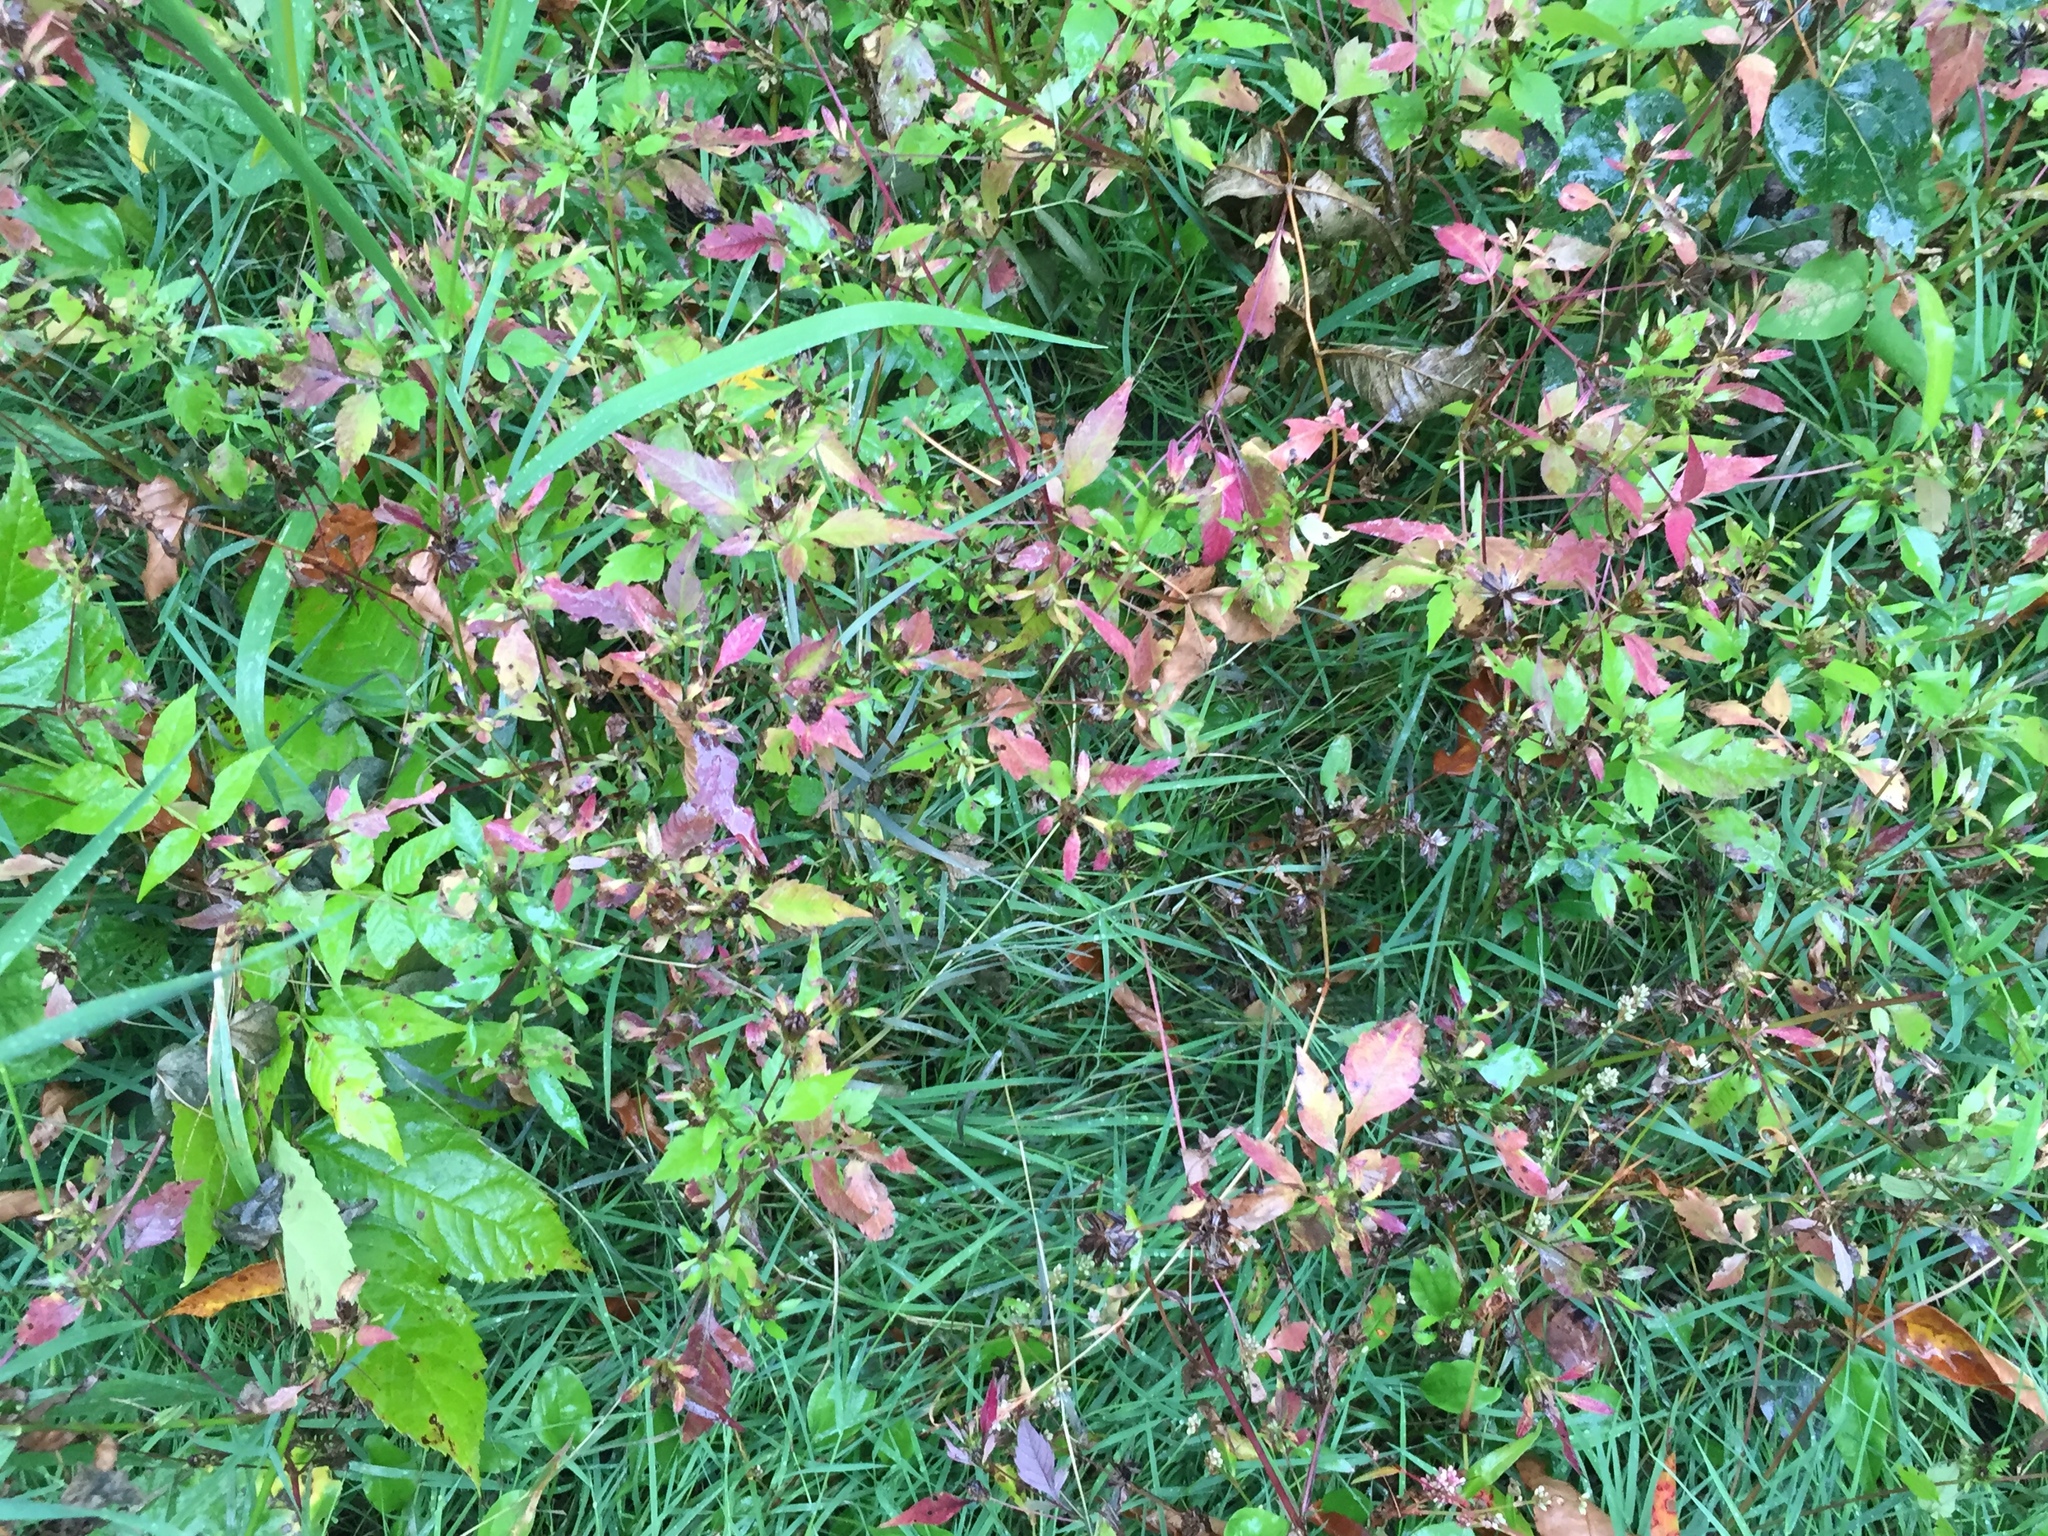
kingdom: Plantae
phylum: Tracheophyta
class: Magnoliopsida
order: Asterales
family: Asteraceae
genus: Bidens
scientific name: Bidens frondosa
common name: Beggarticks
